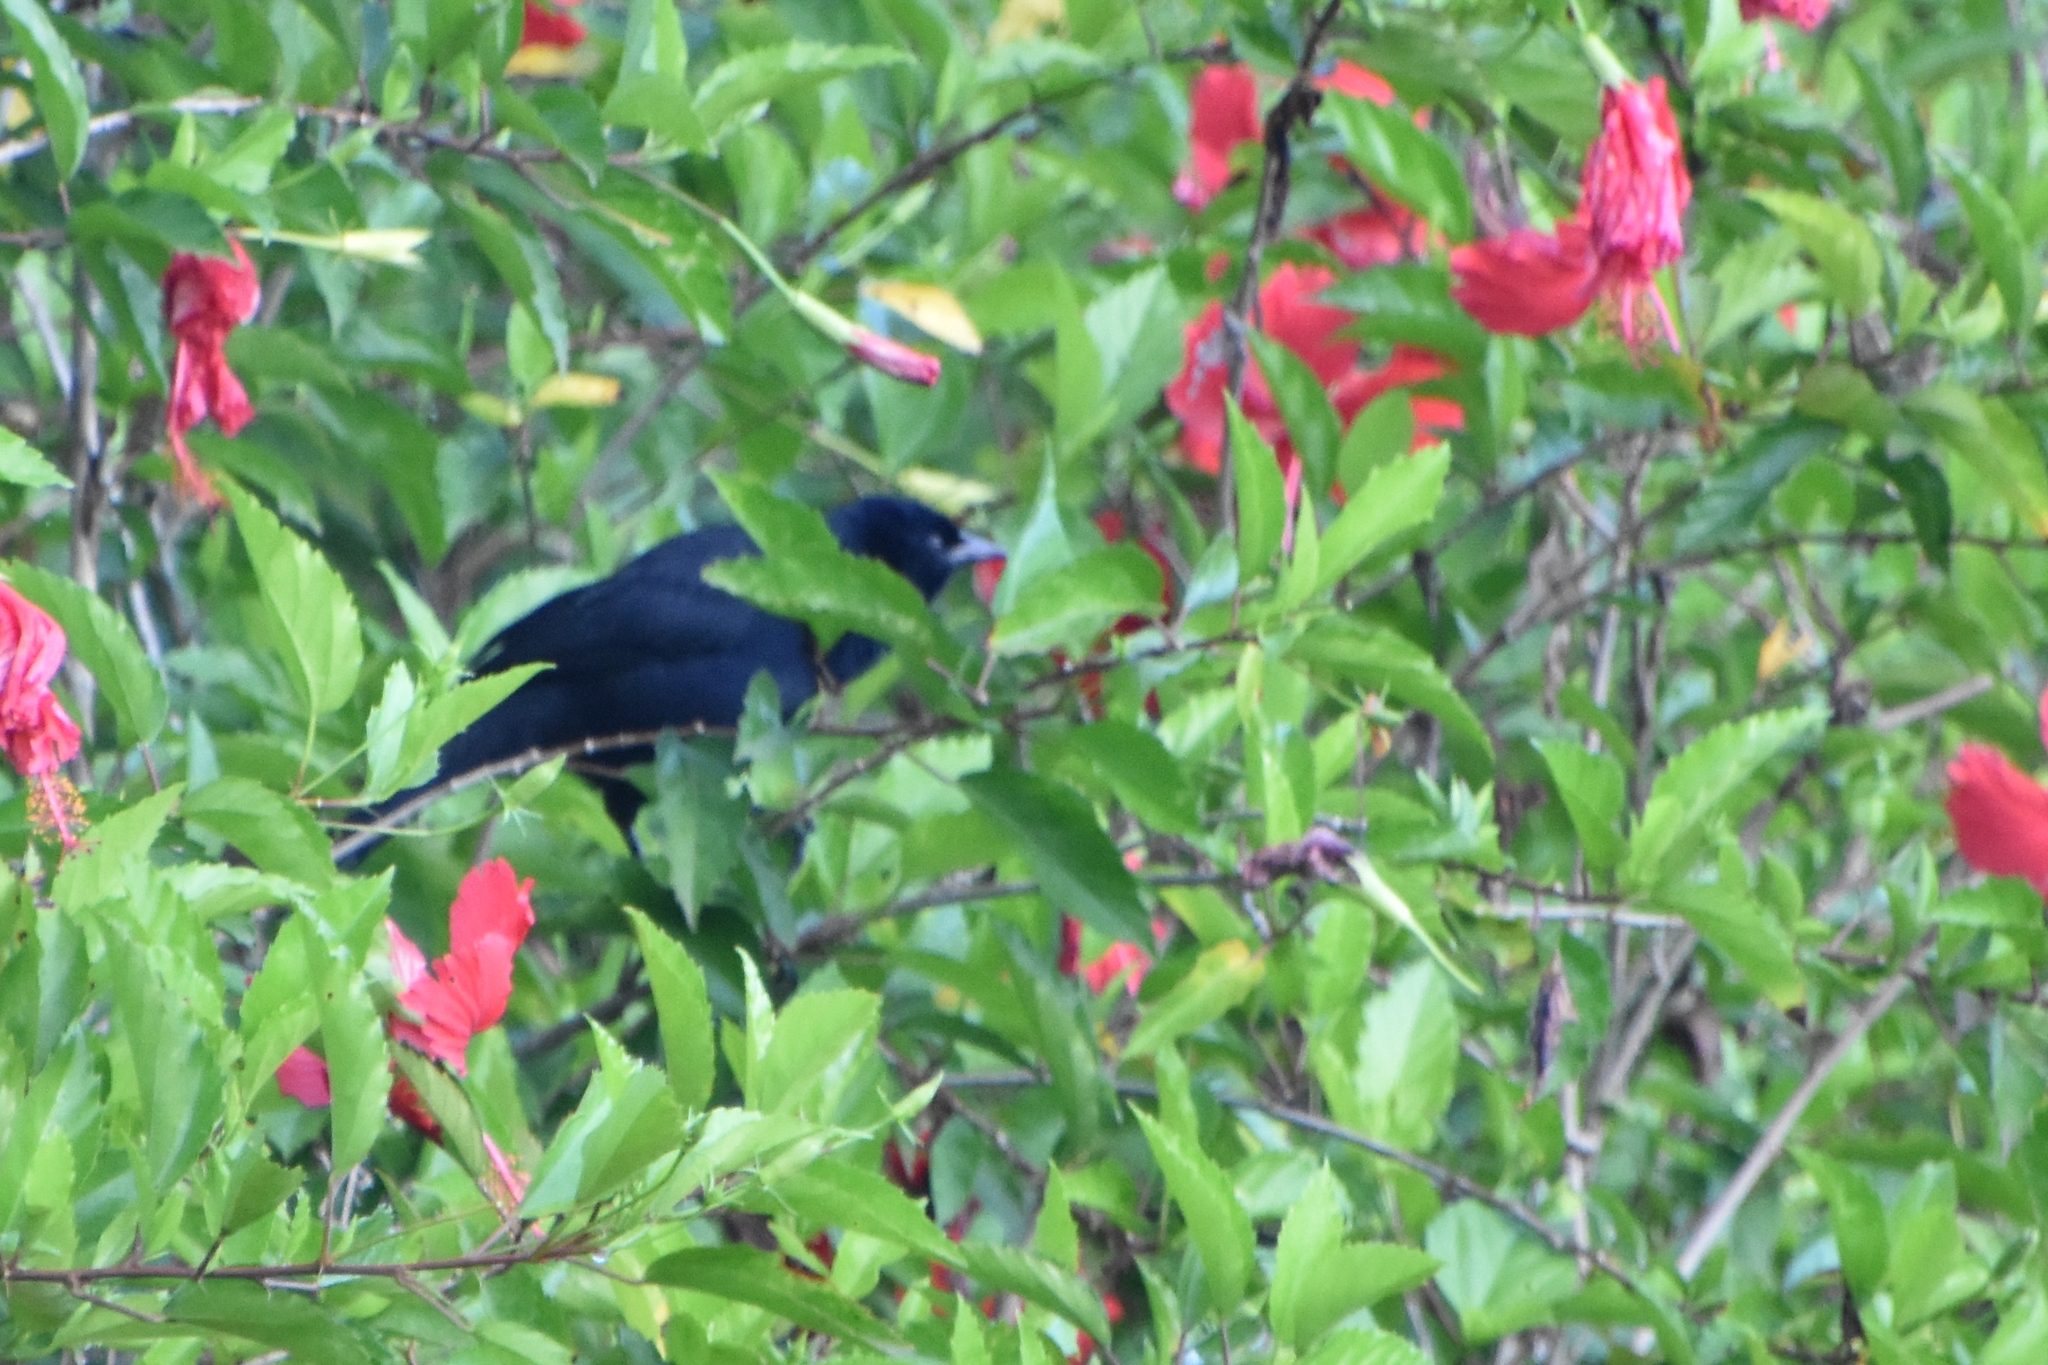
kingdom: Animalia
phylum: Chordata
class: Aves
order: Passeriformes
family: Icteridae
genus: Dives
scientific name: Dives dives
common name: Melodious blackbird
